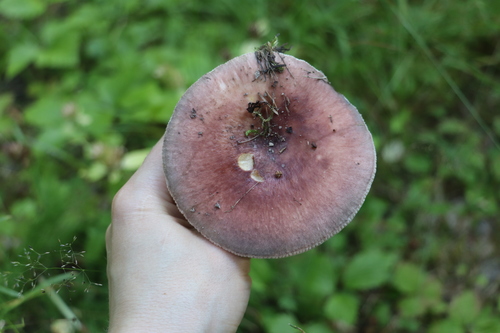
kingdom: Fungi
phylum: Basidiomycota
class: Agaricomycetes
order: Russulales
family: Russulaceae
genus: Russula
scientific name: Russula vesca
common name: Bare-toothed russula
